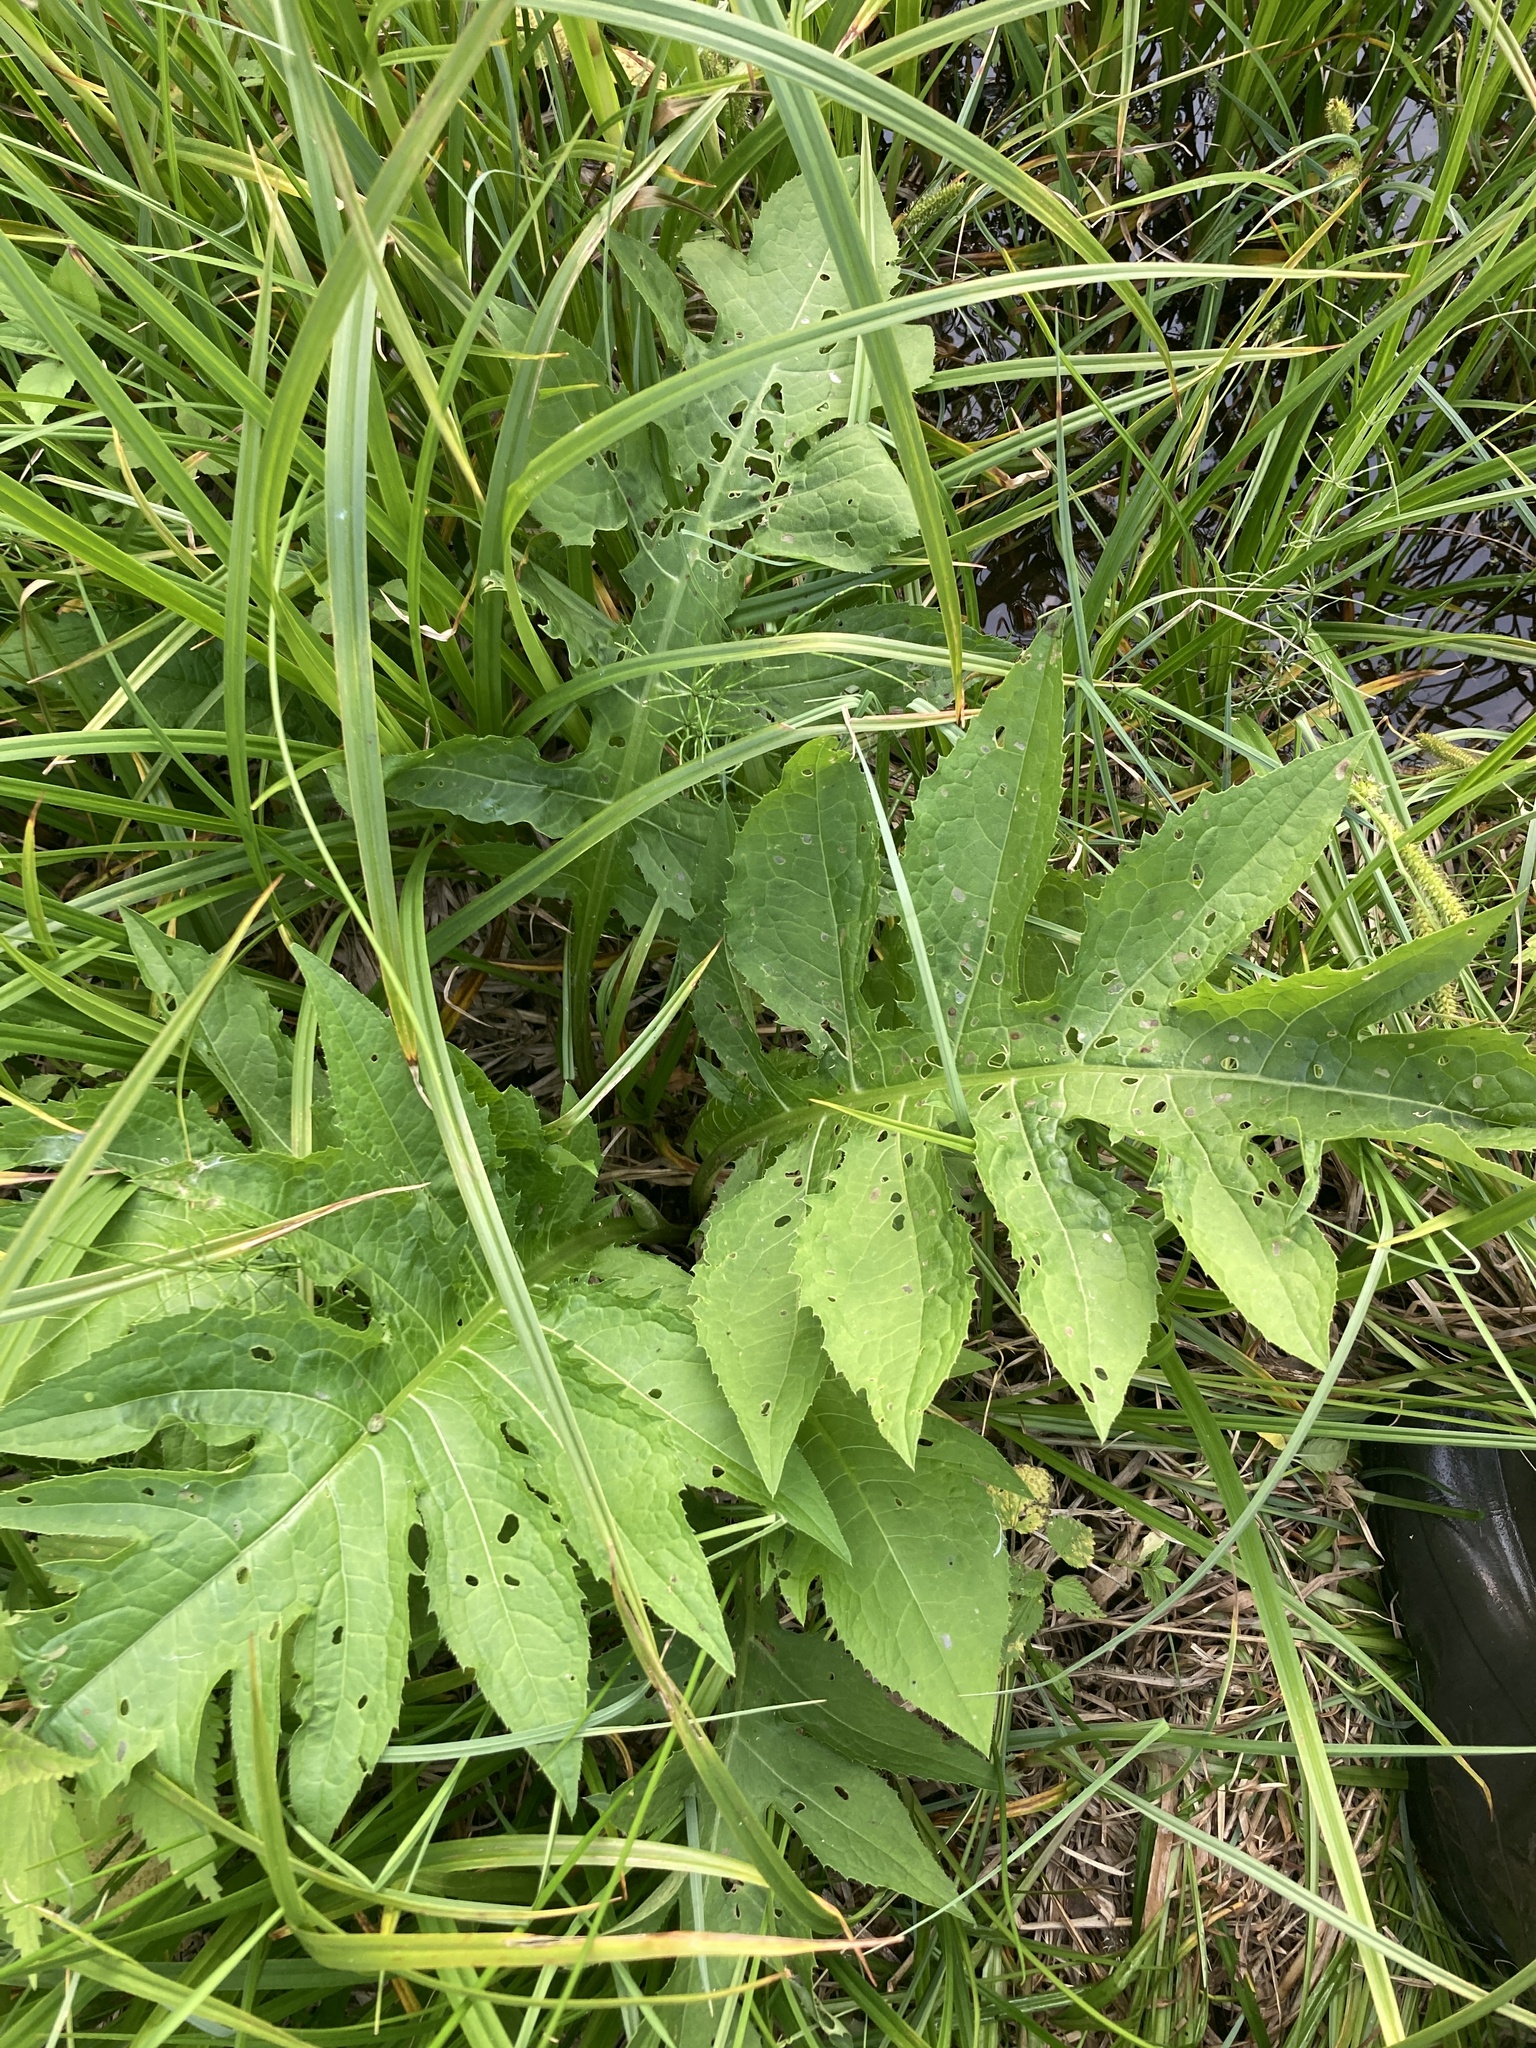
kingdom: Plantae
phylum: Tracheophyta
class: Magnoliopsida
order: Asterales
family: Asteraceae
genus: Cirsium
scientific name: Cirsium oleraceum
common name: Cabbage thistle
